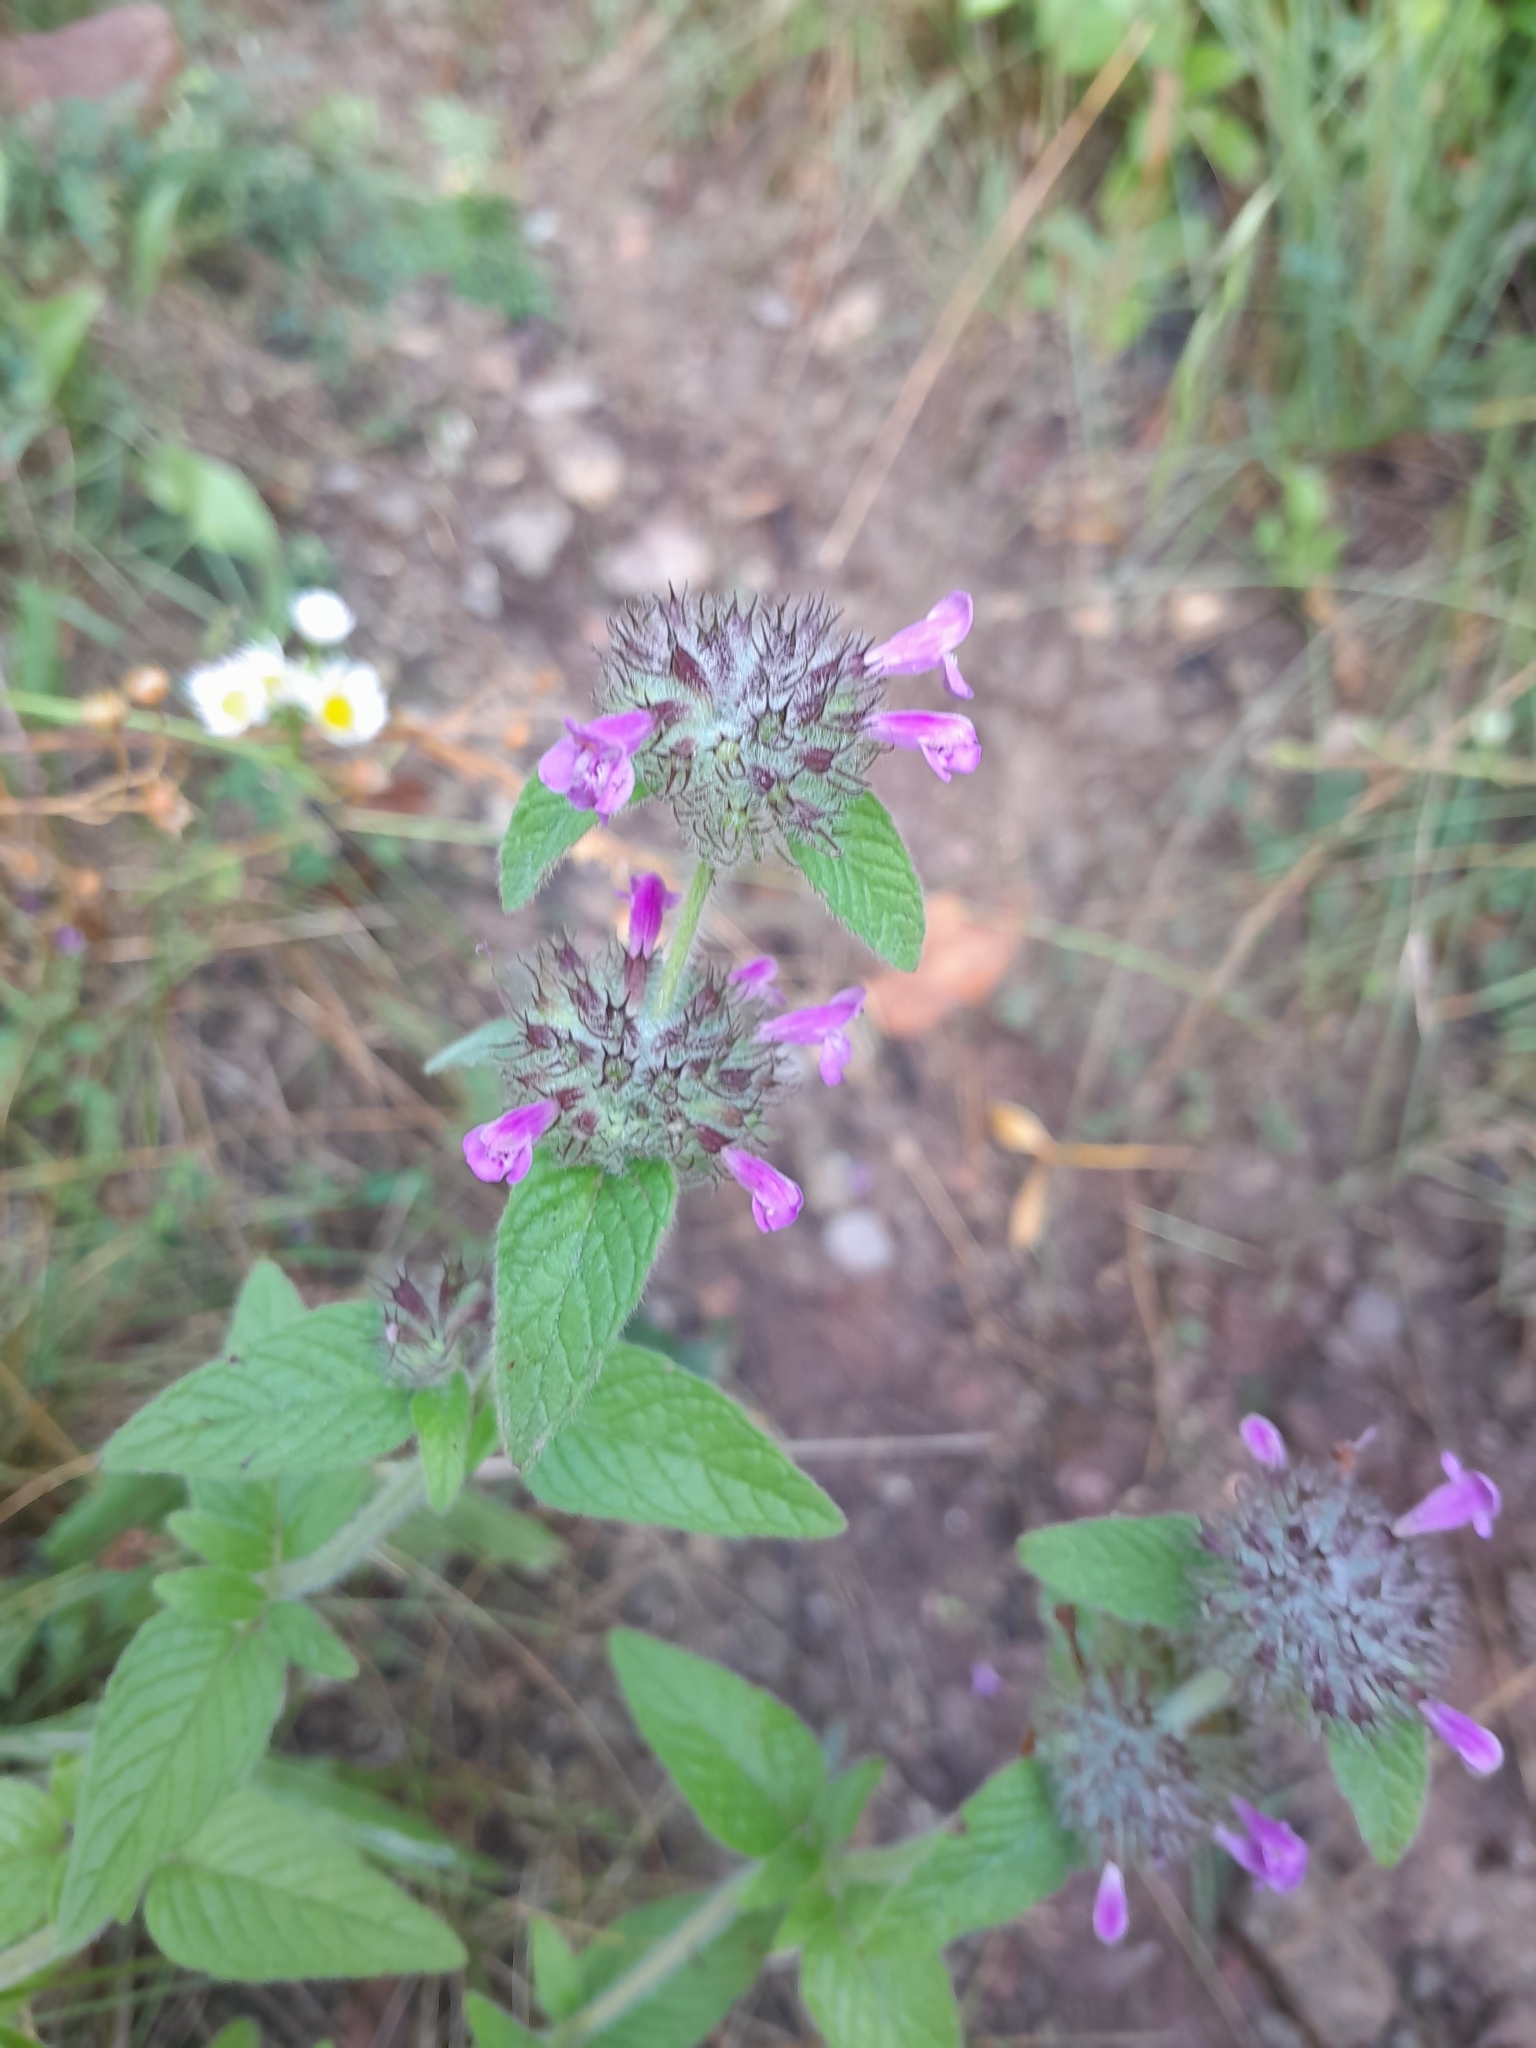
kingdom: Plantae
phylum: Tracheophyta
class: Magnoliopsida
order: Lamiales
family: Lamiaceae
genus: Clinopodium
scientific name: Clinopodium vulgare
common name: Wild basil
